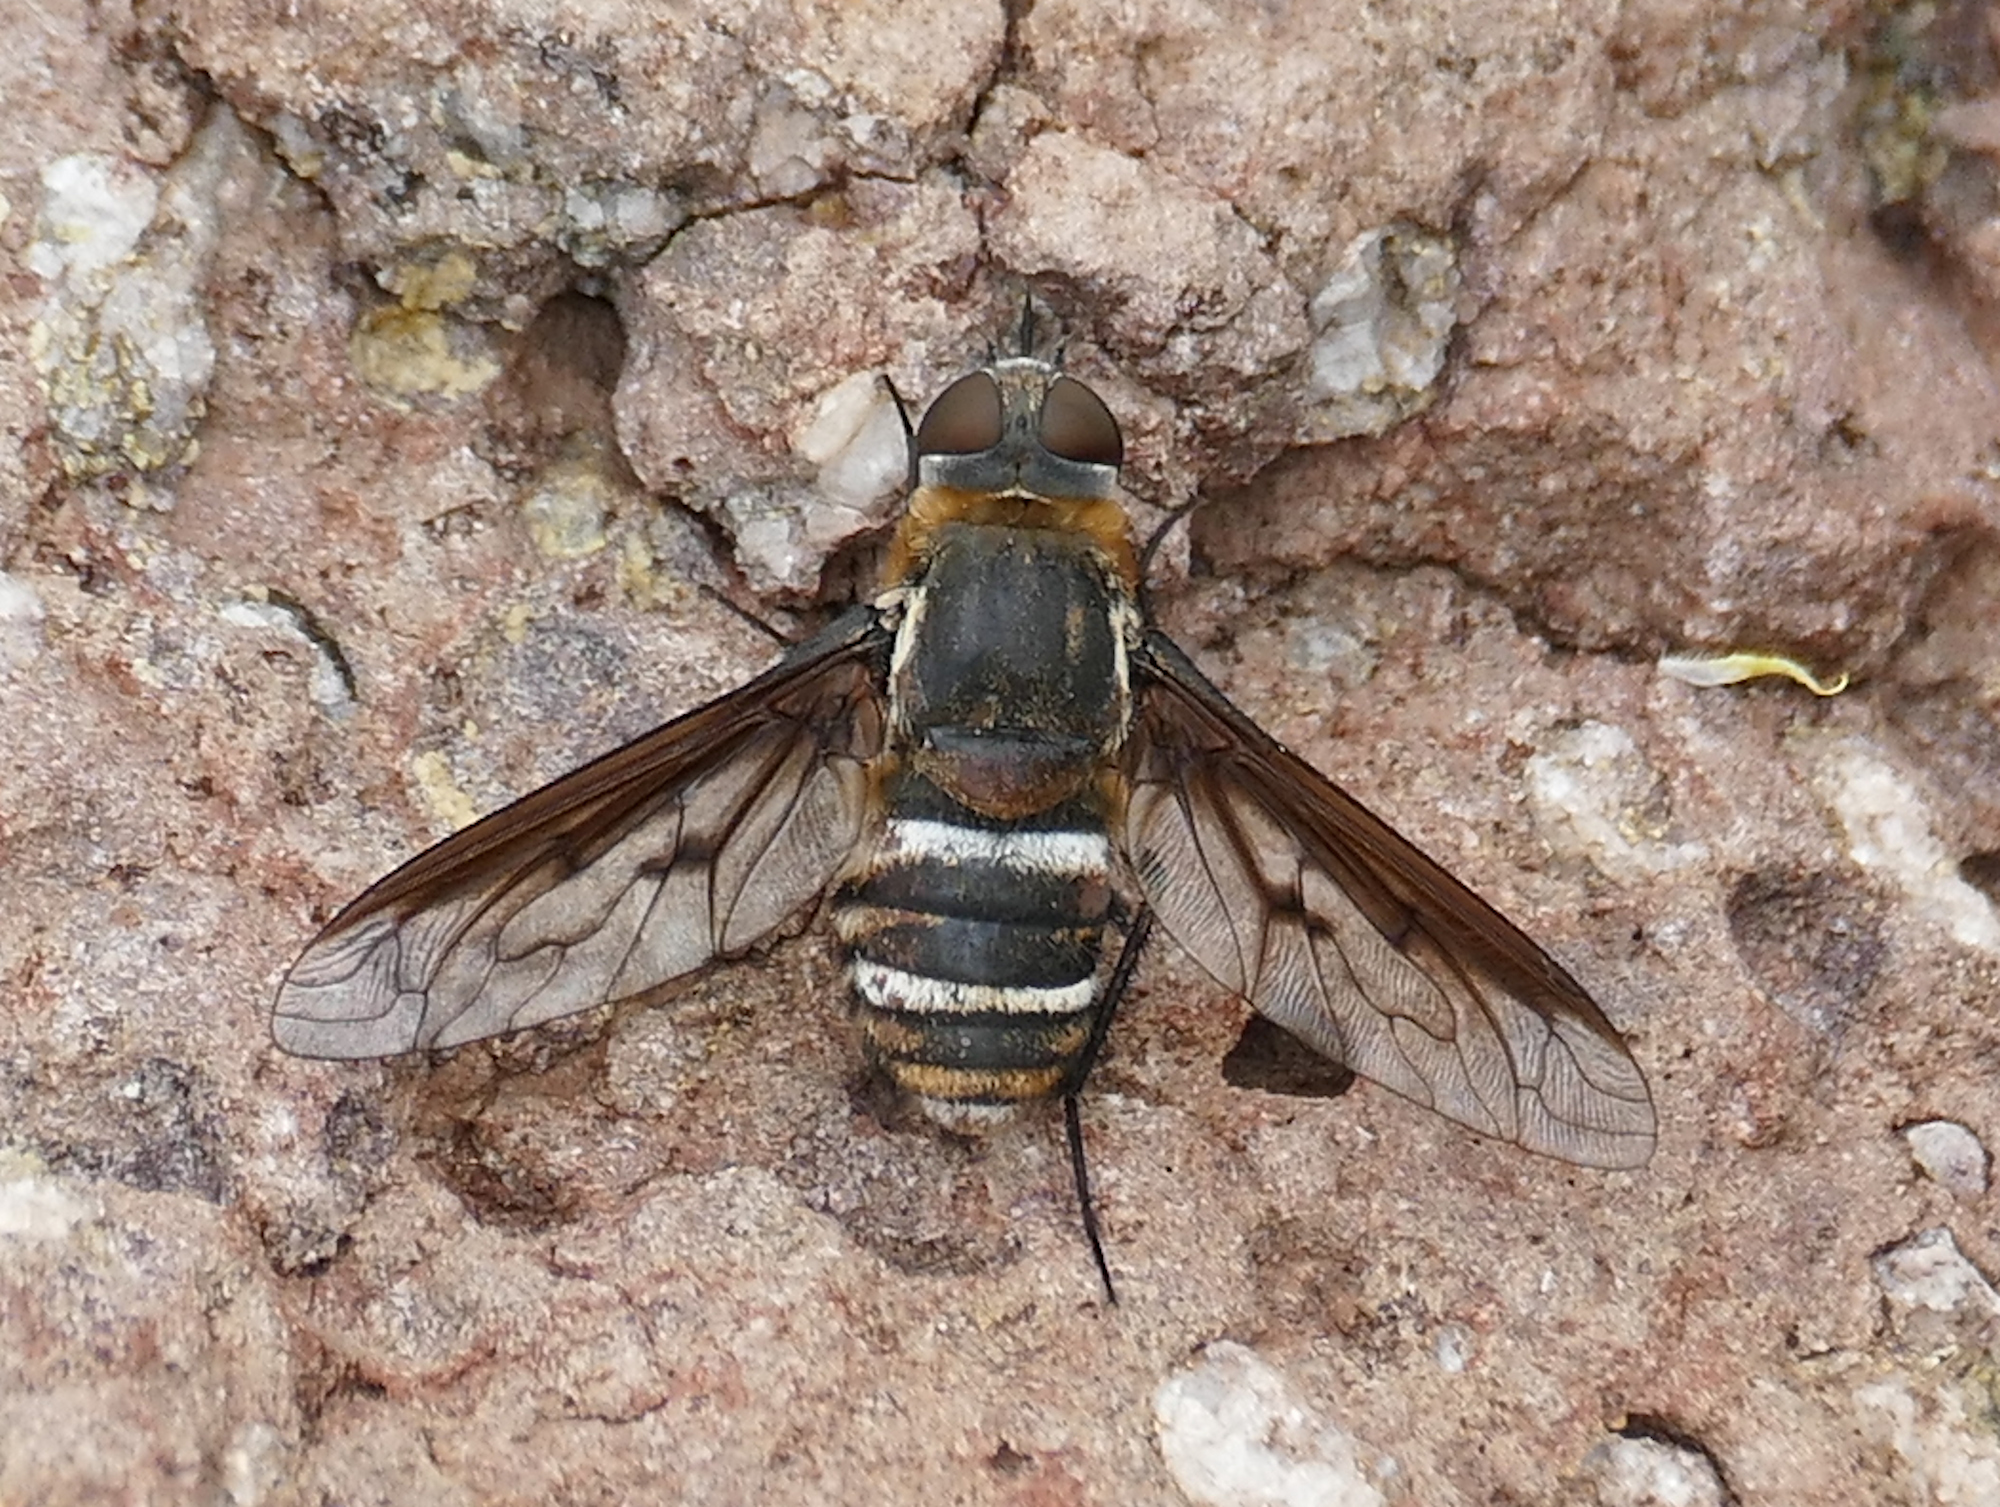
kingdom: Animalia
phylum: Arthropoda
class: Insecta
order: Diptera
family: Bombyliidae
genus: Exoprosopa
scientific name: Exoprosopa dodrina
